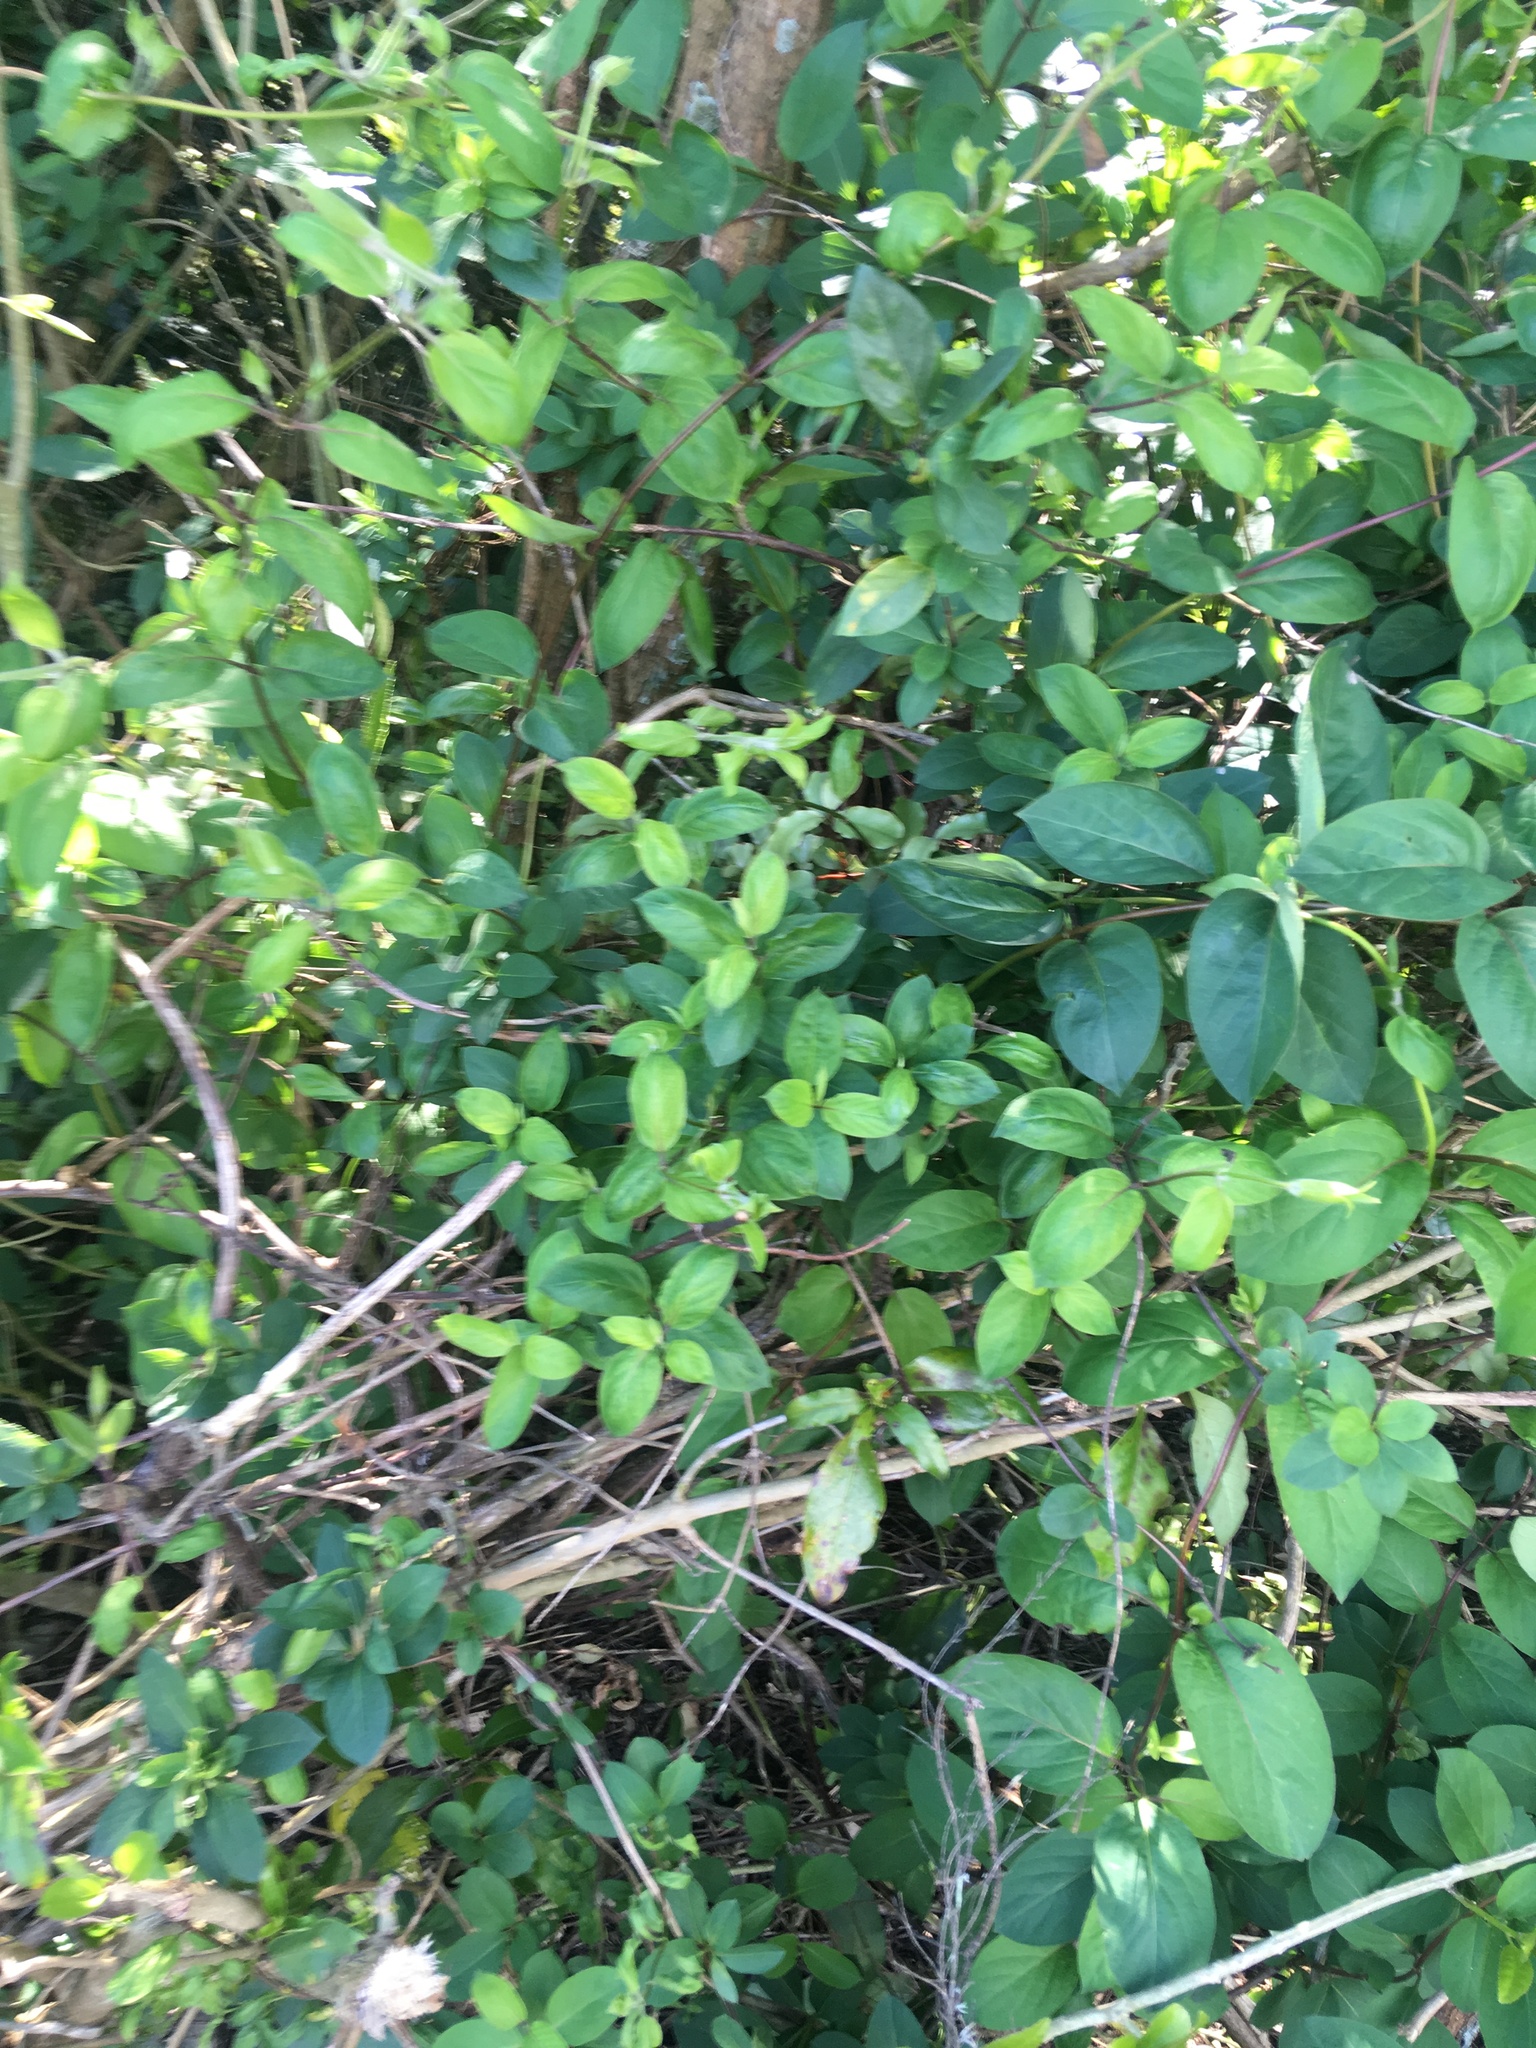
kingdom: Plantae
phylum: Tracheophyta
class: Magnoliopsida
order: Dipsacales
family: Caprifoliaceae
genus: Lonicera
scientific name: Lonicera japonica
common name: Japanese honeysuckle
